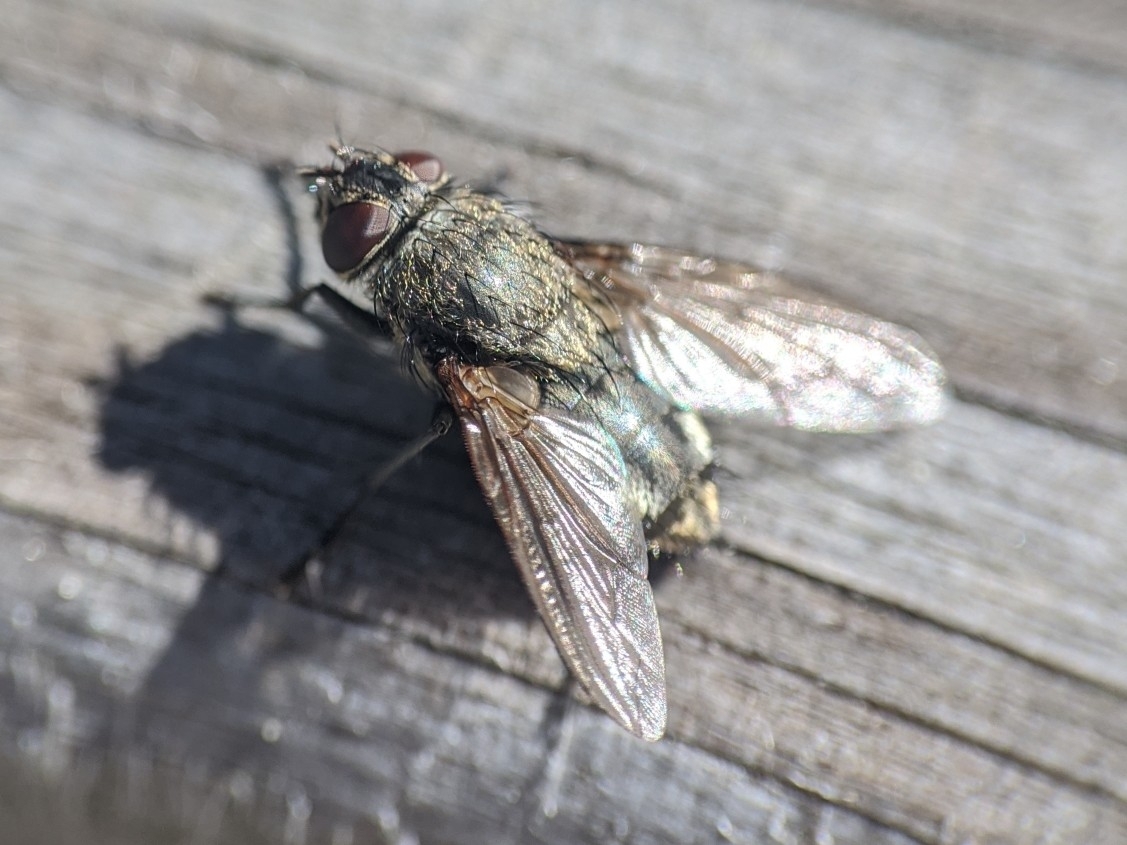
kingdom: Animalia
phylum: Arthropoda
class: Insecta
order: Diptera
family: Polleniidae
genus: Pollenia
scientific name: Pollenia
